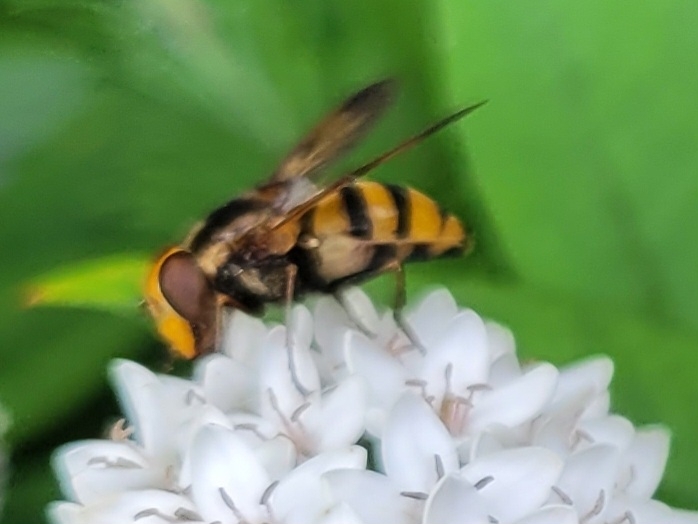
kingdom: Animalia
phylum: Arthropoda
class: Insecta
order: Diptera
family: Syrphidae
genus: Volucella
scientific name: Volucella inanis
